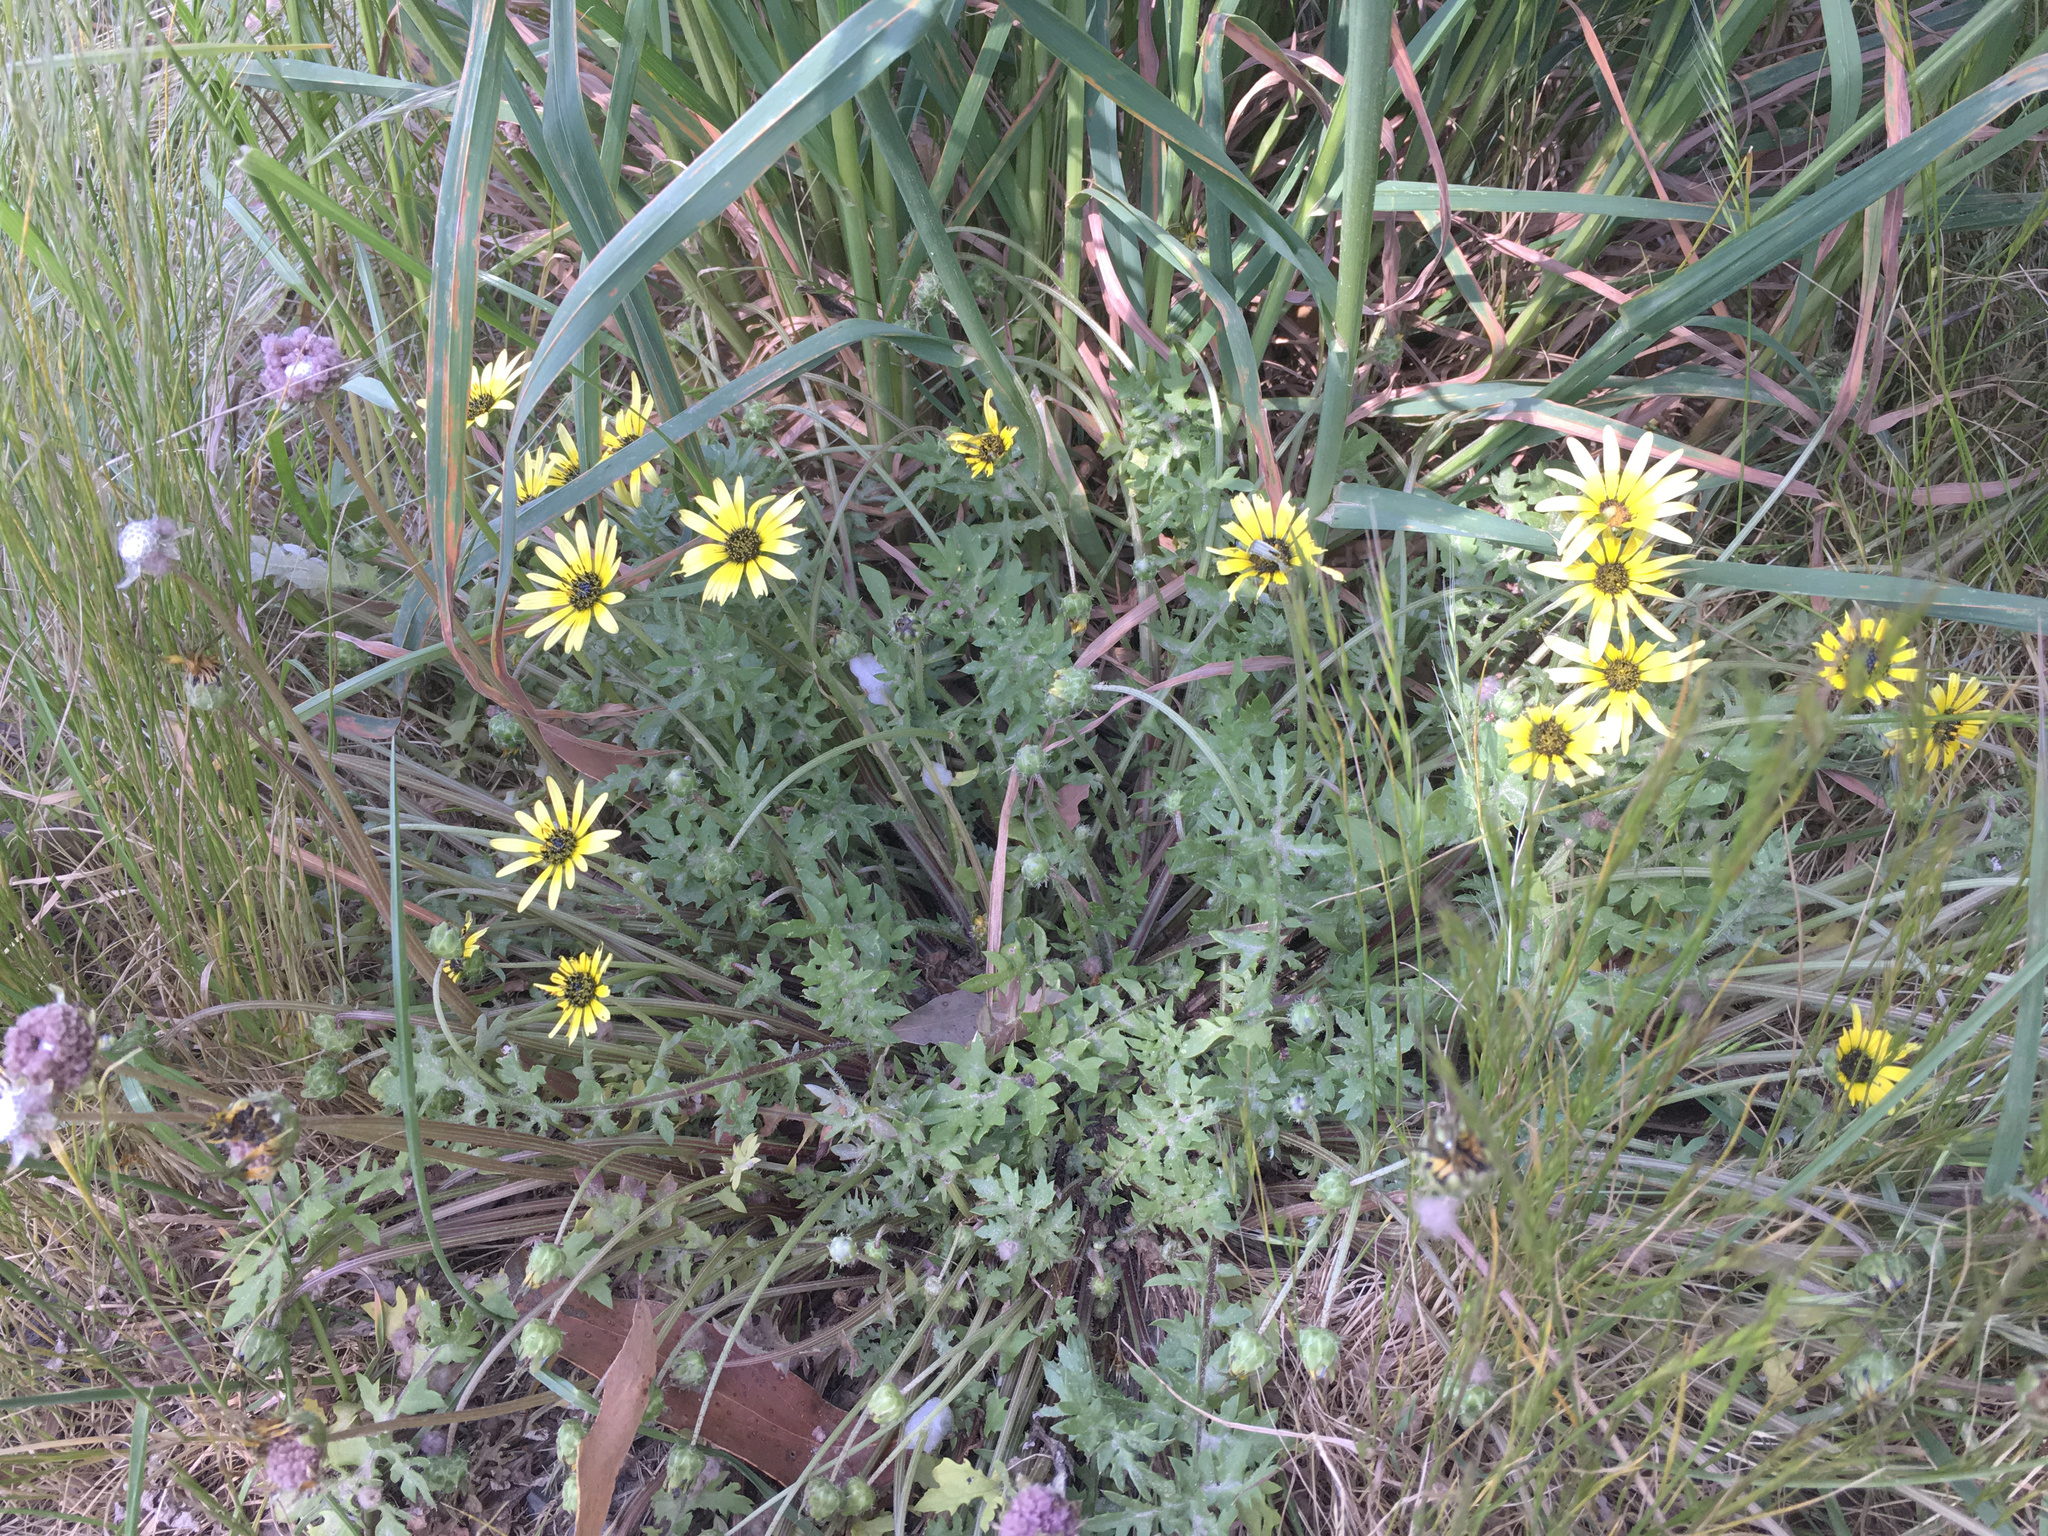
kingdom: Plantae
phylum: Tracheophyta
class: Magnoliopsida
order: Asterales
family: Asteraceae
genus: Arctotheca
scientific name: Arctotheca calendula
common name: Capeweed
